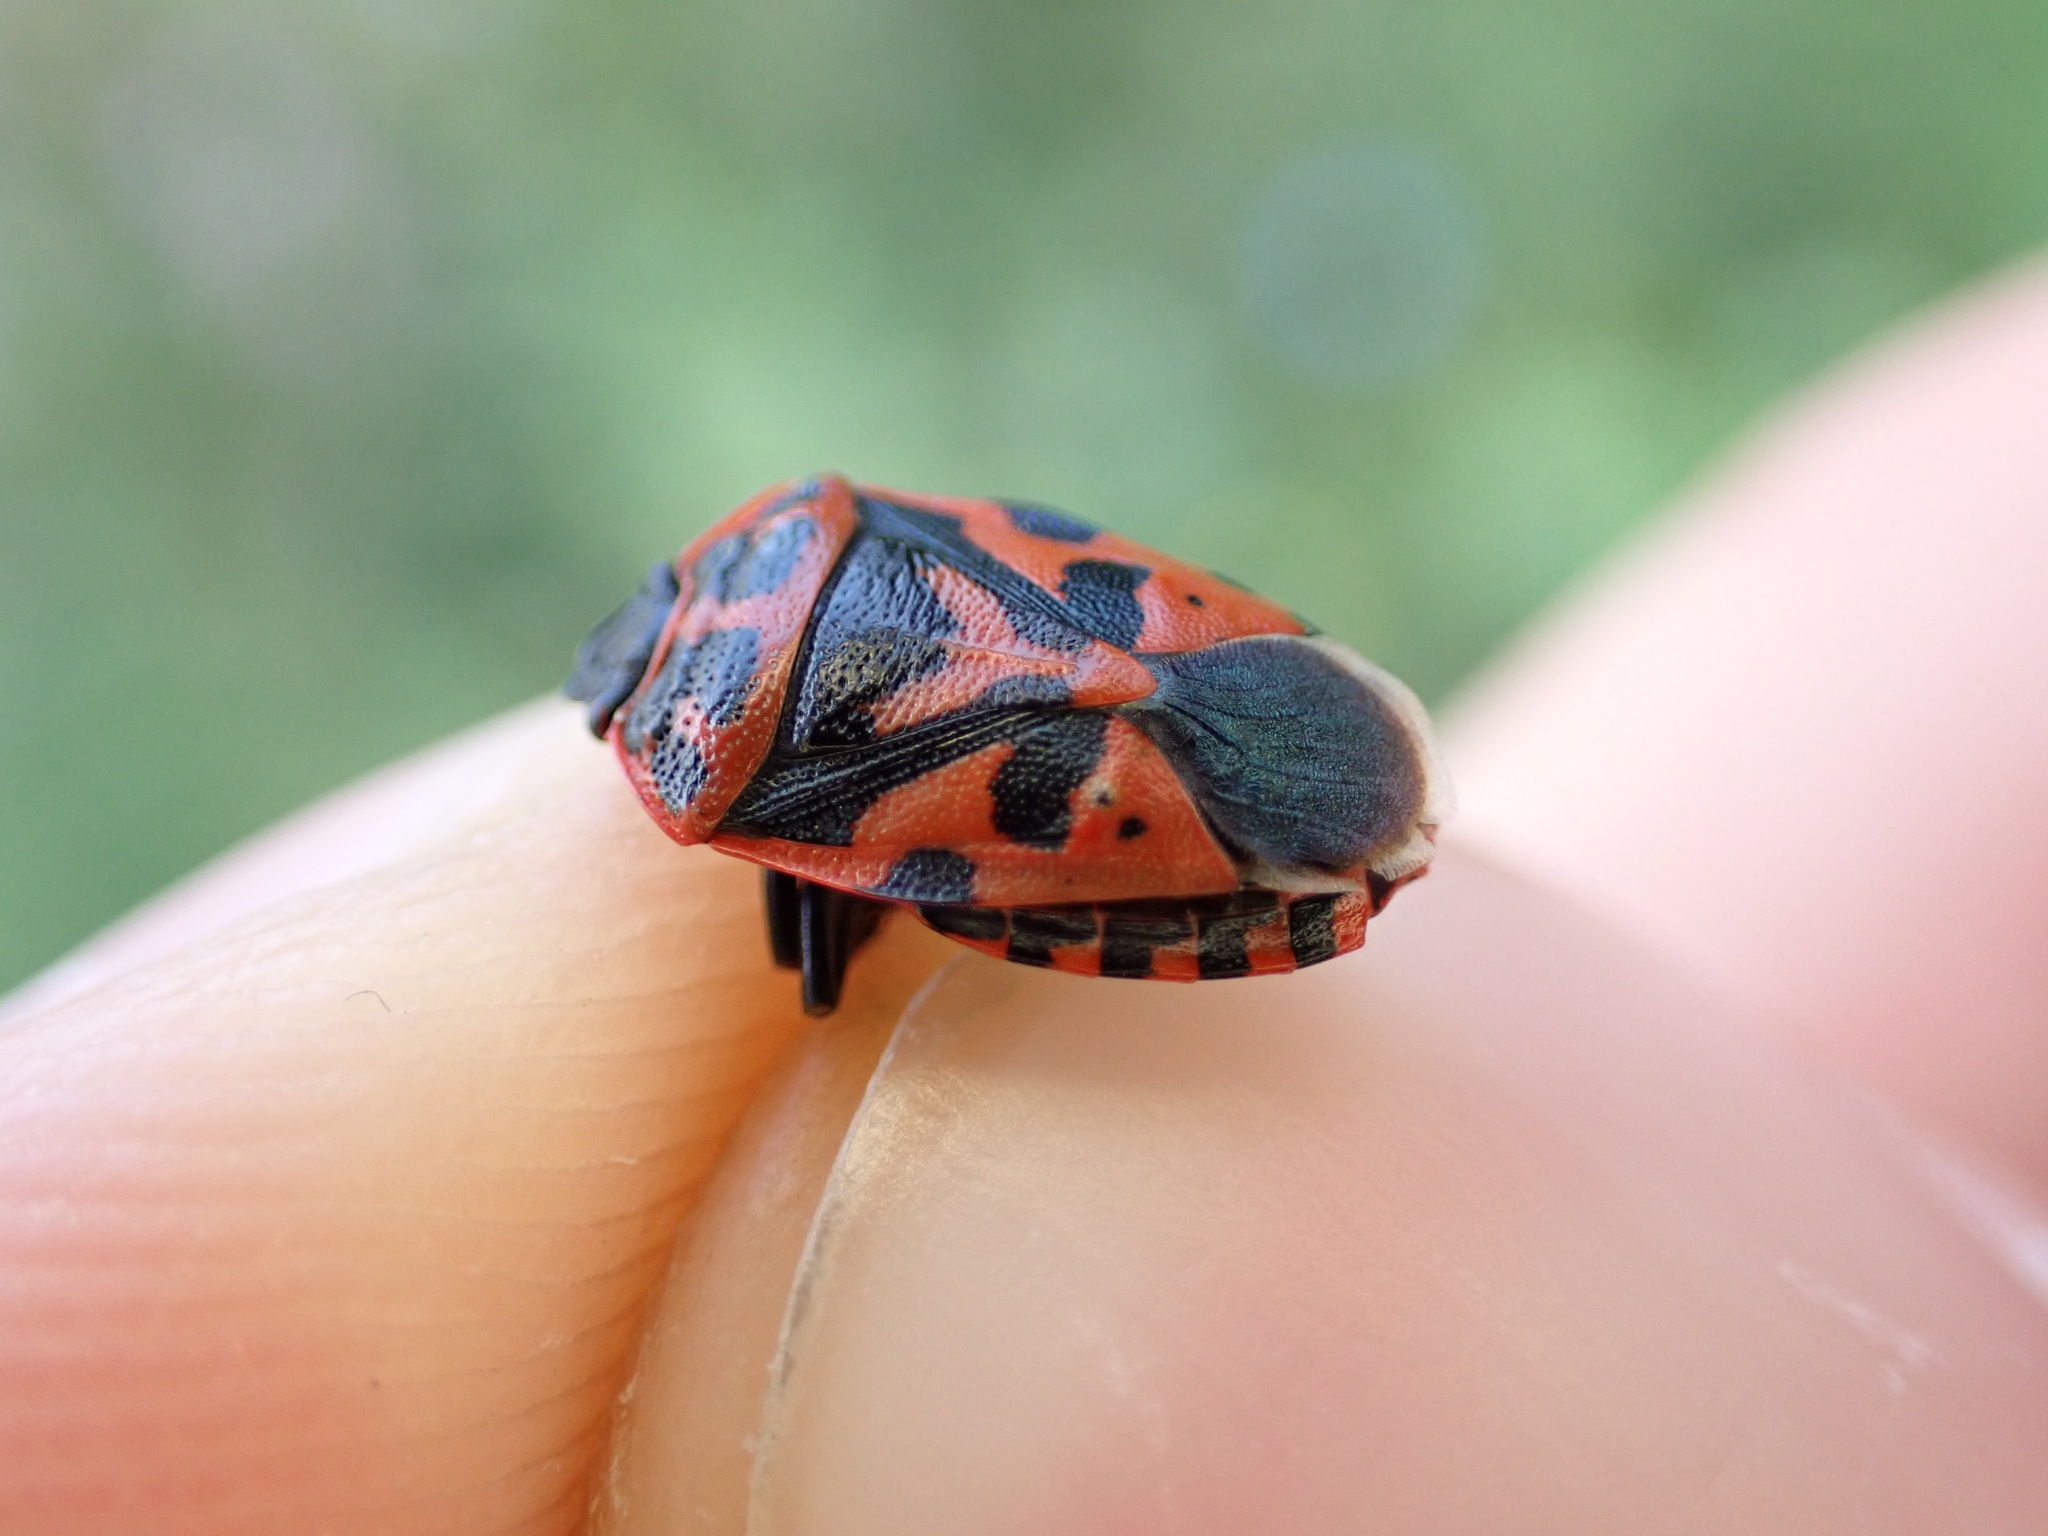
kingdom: Animalia
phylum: Arthropoda
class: Insecta
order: Hemiptera
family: Pentatomidae
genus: Eurydema
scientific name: Eurydema ventralis
